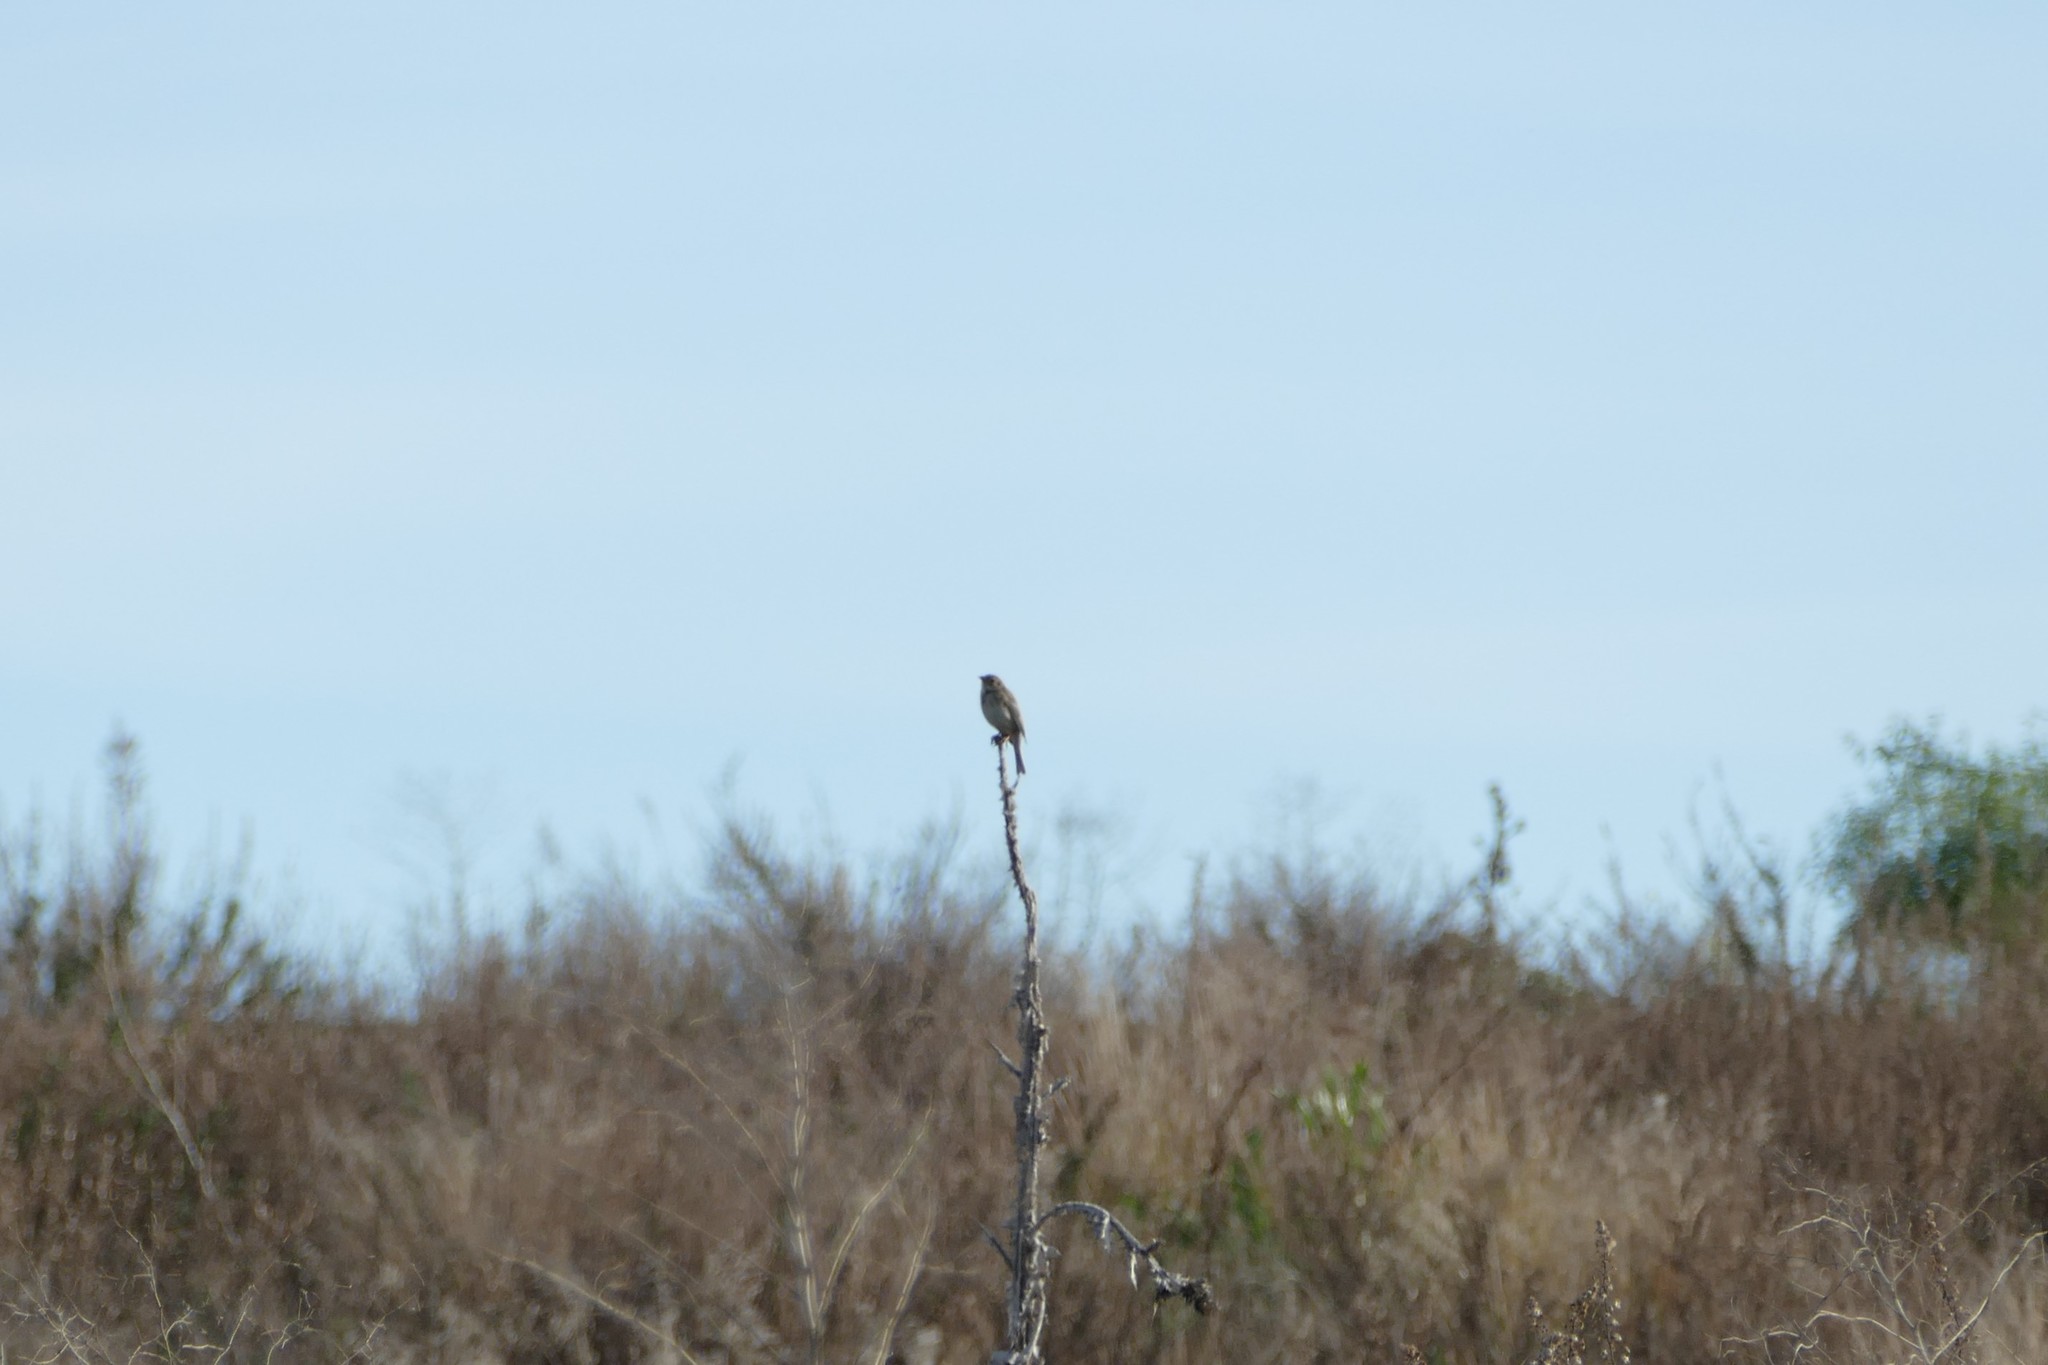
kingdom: Animalia
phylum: Chordata
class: Aves
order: Passeriformes
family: Emberizidae
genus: Emberiza
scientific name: Emberiza calandra
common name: Corn bunting
